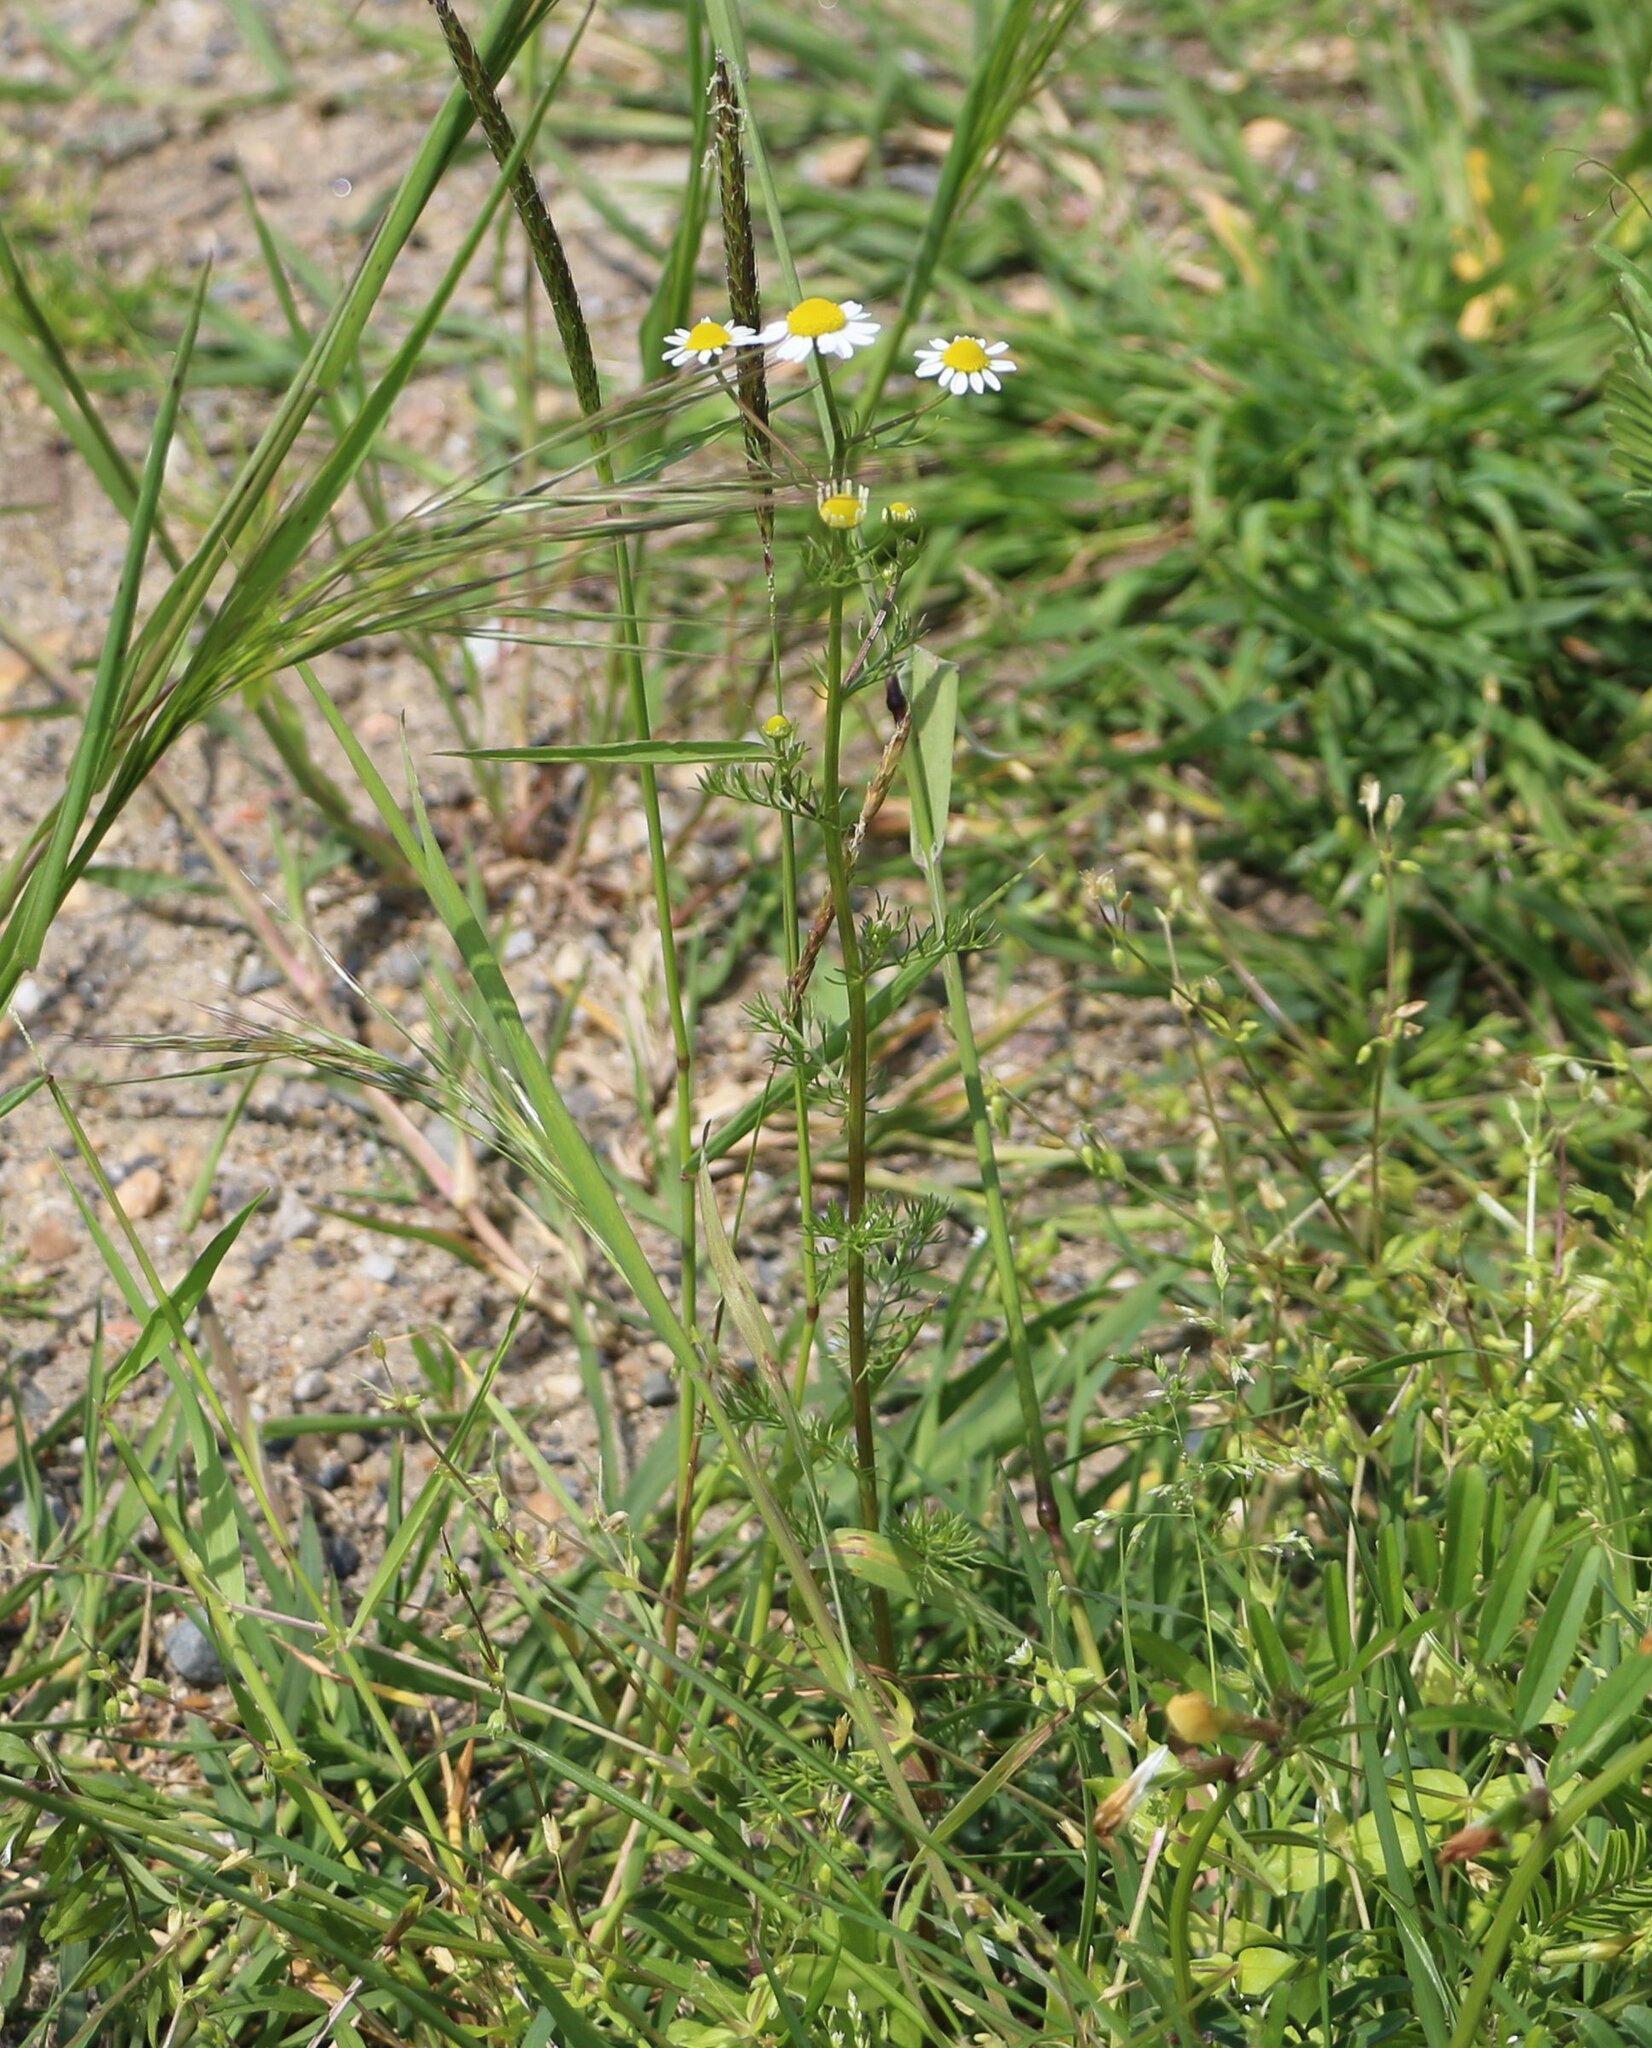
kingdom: Plantae
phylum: Tracheophyta
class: Magnoliopsida
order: Asterales
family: Asteraceae
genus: Matricaria
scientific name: Matricaria chamomilla
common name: Scented mayweed
